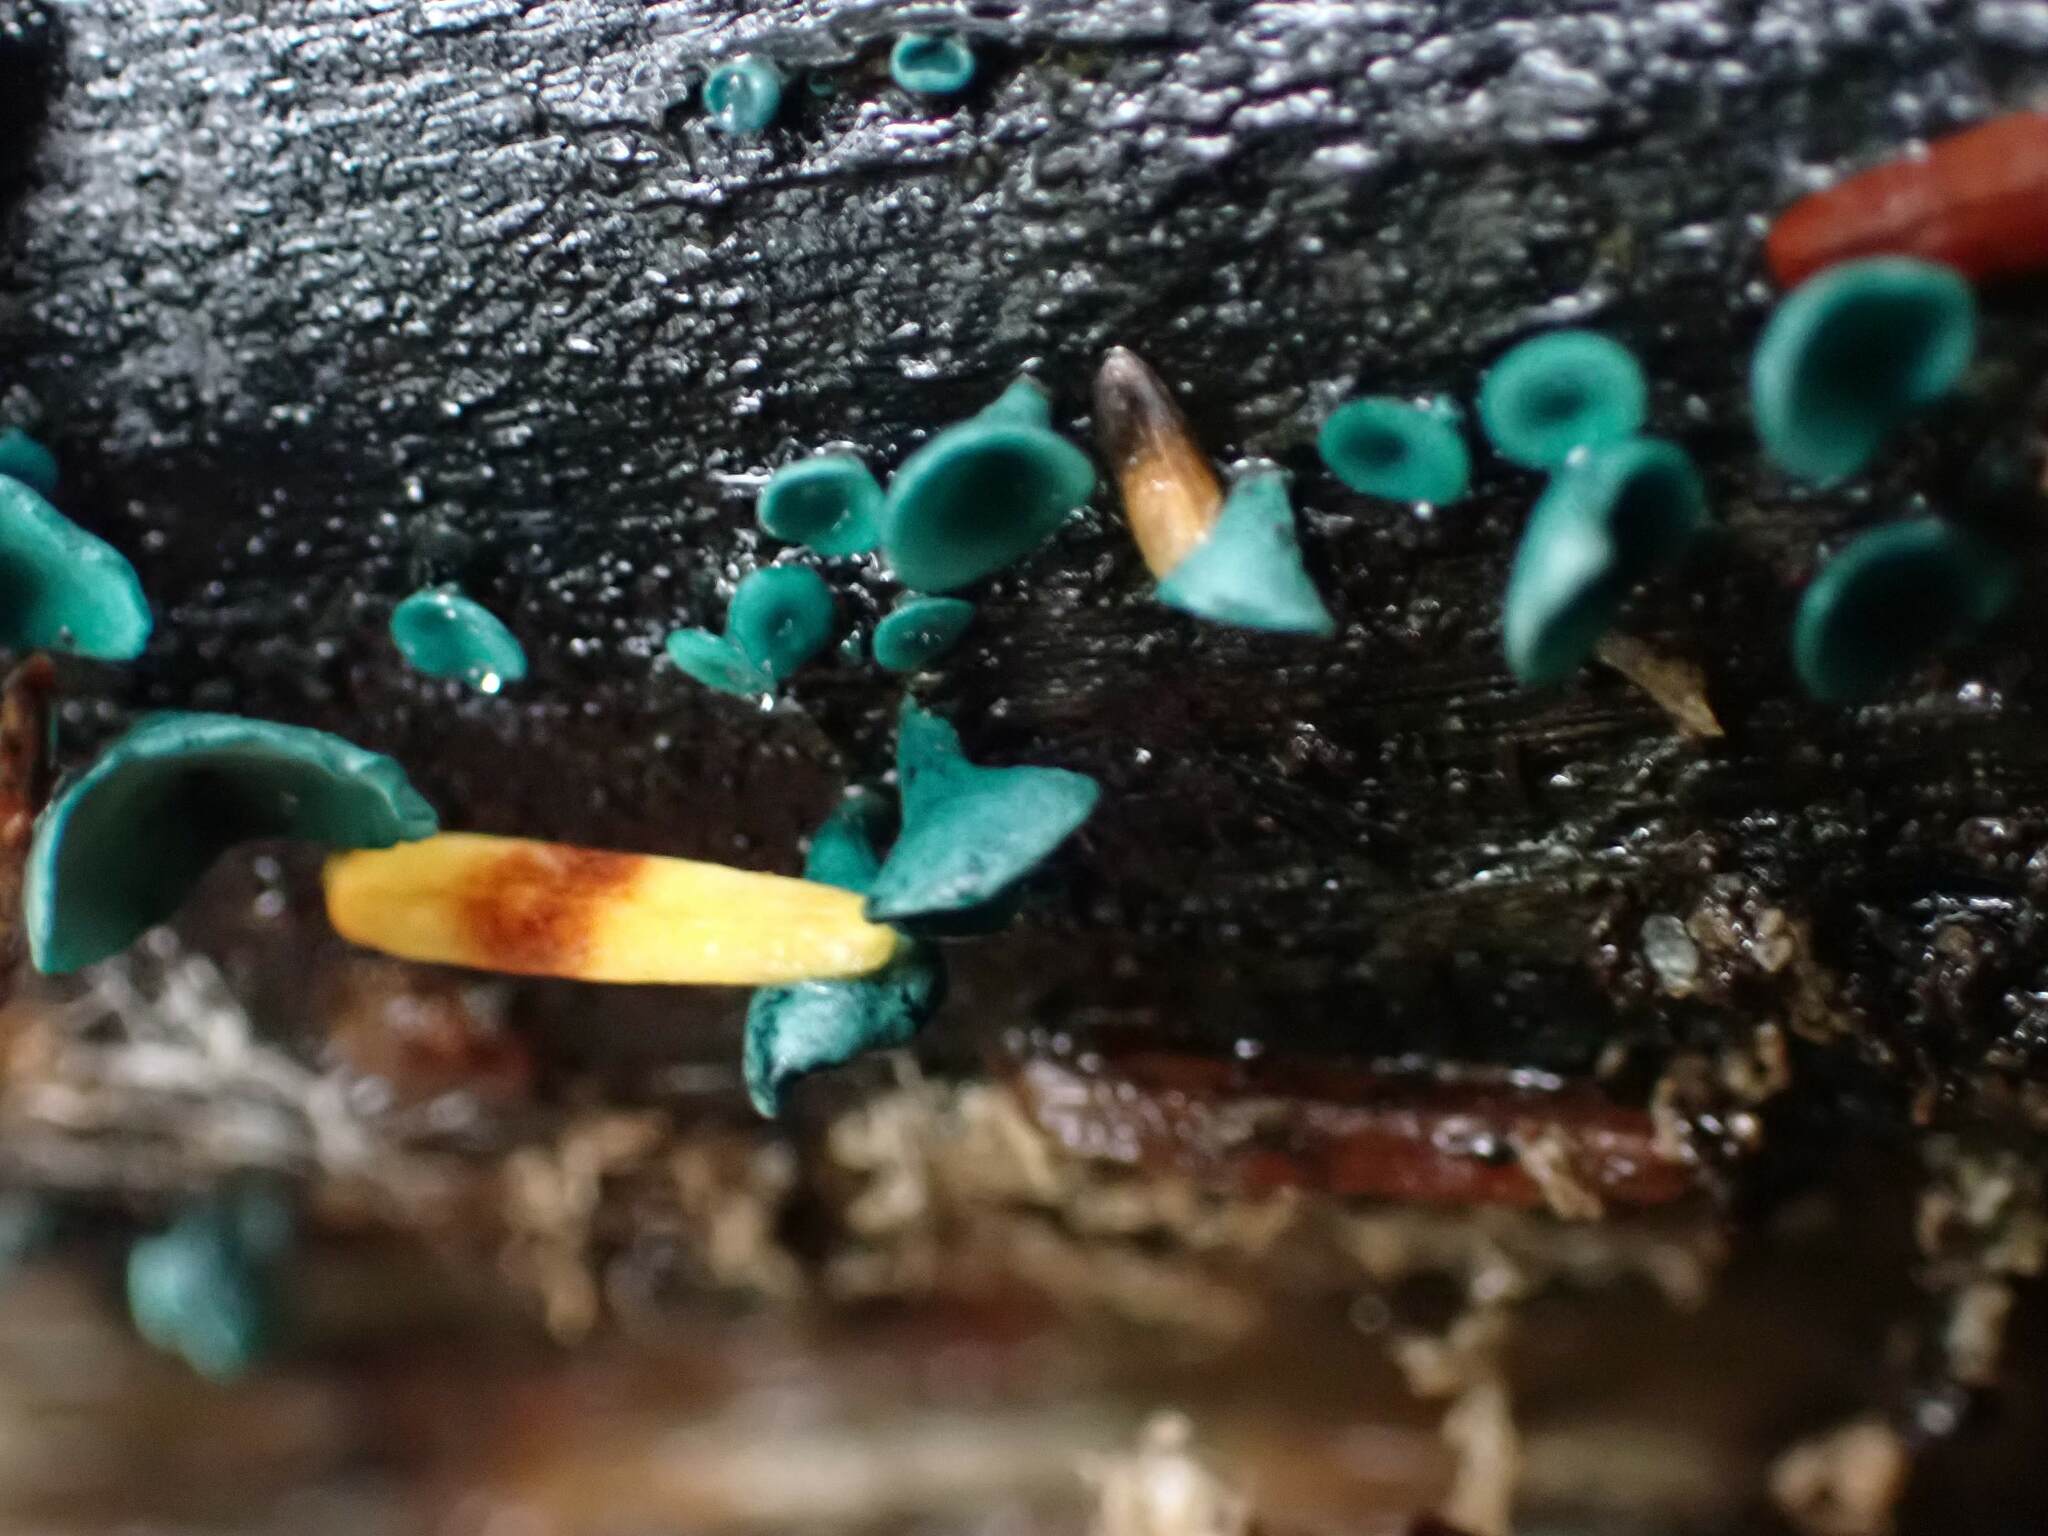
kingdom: Fungi
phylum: Ascomycota
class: Leotiomycetes
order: Helotiales
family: Chlorociboriaceae
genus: Chlorociboria
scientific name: Chlorociboria
